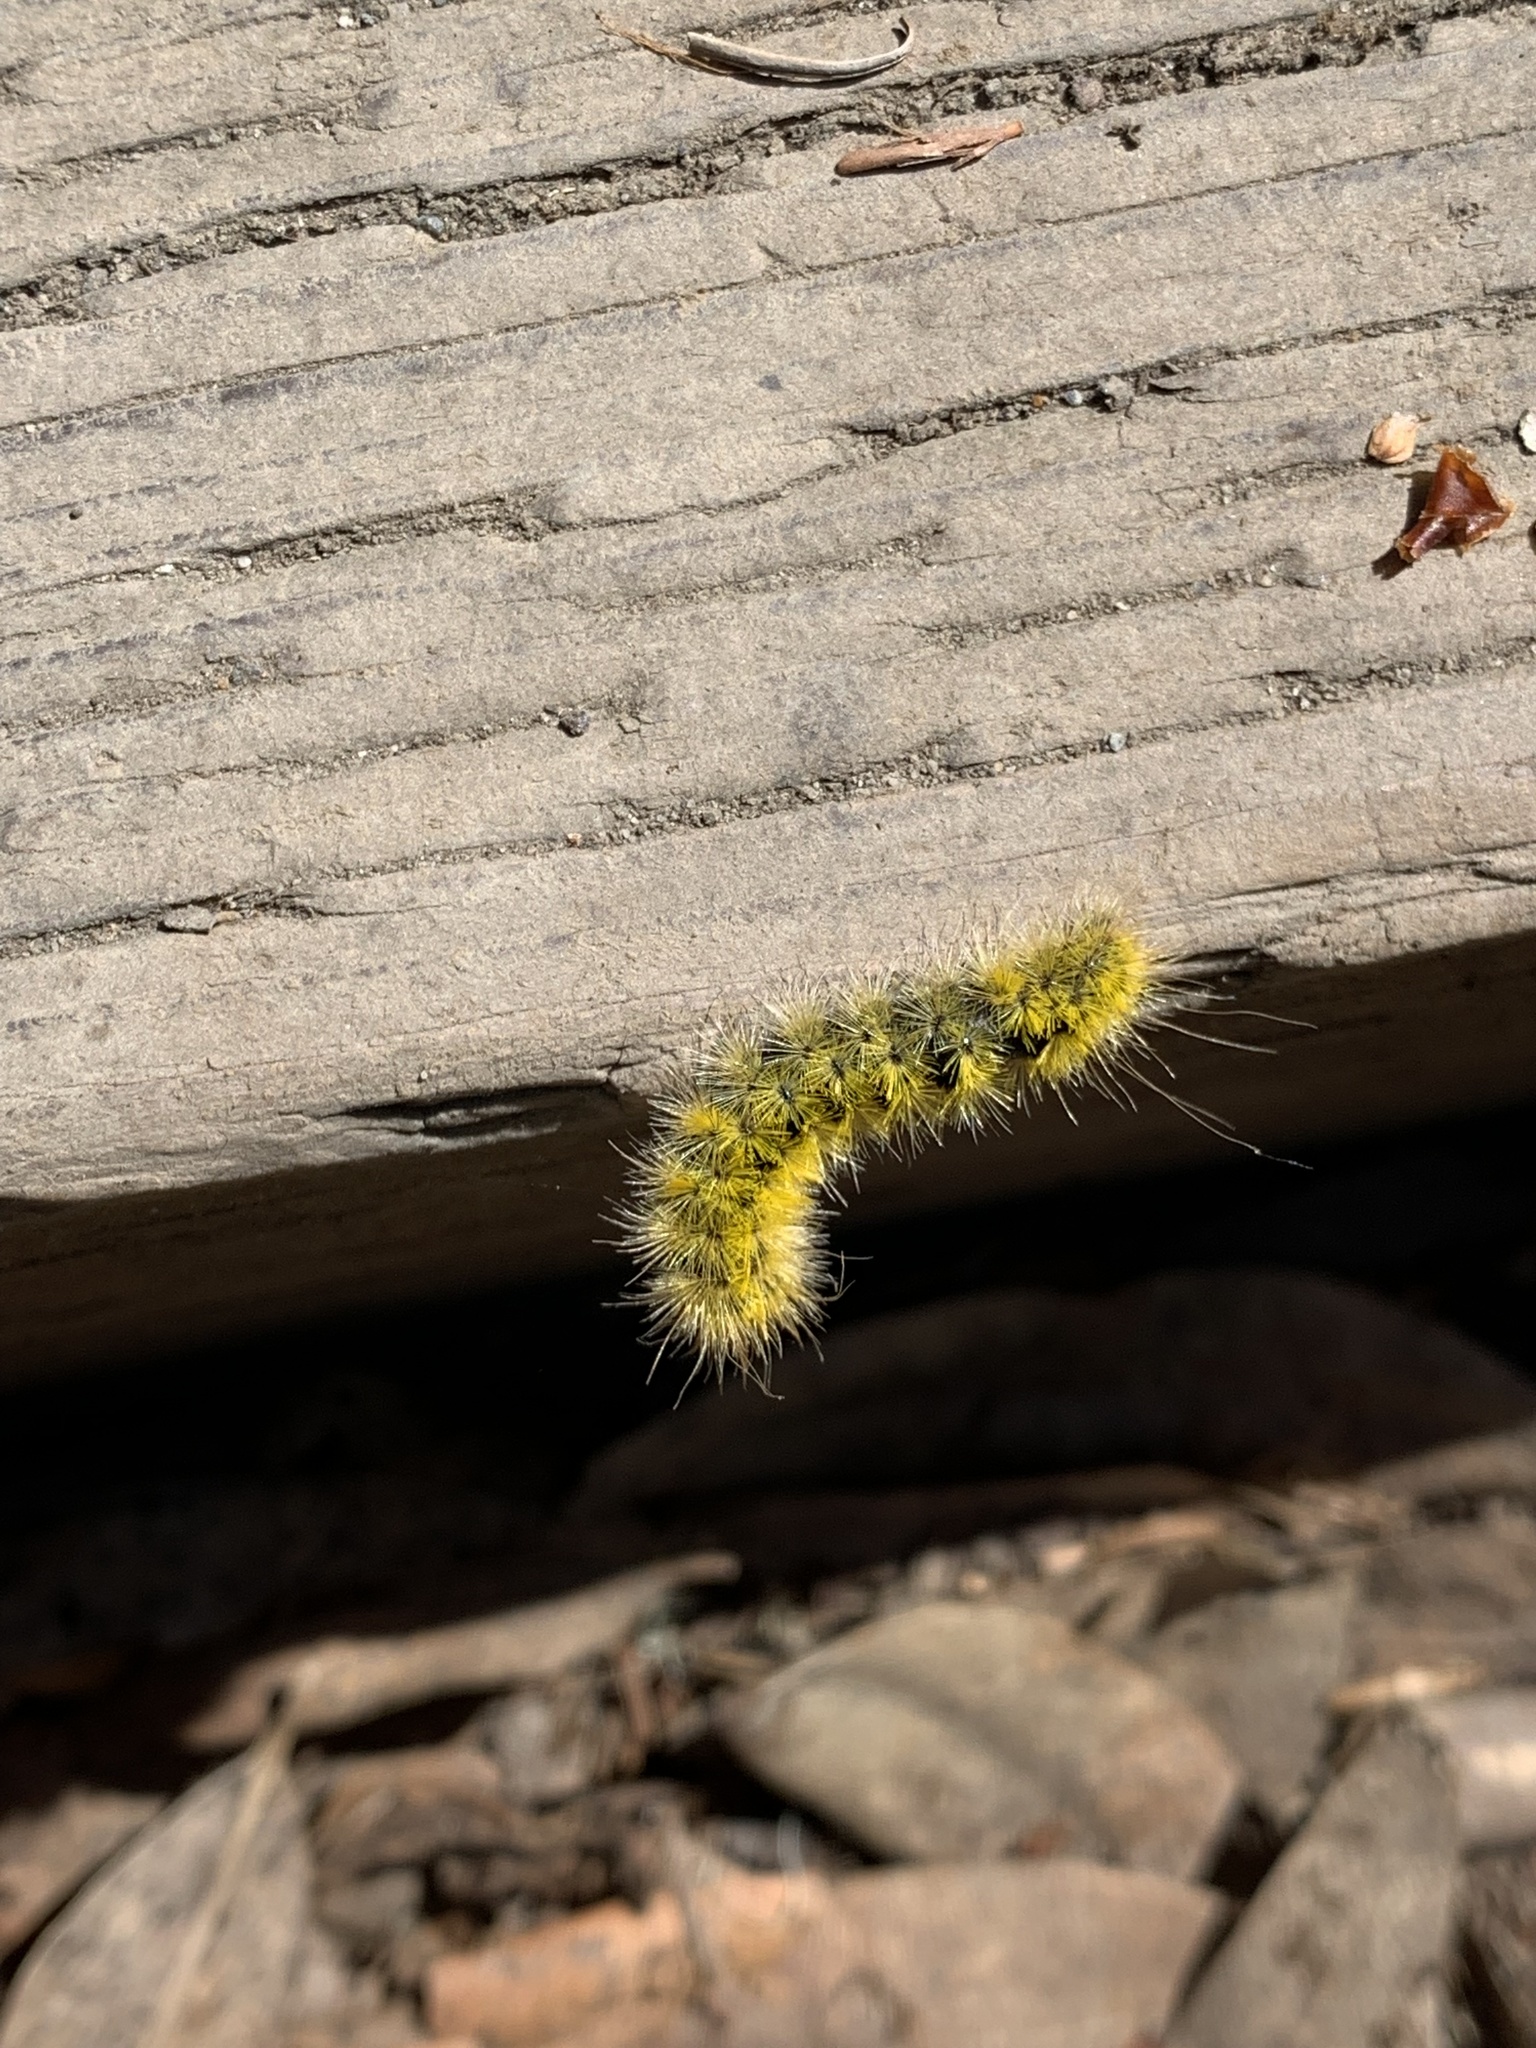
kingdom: Animalia
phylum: Arthropoda
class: Insecta
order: Lepidoptera
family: Erebidae
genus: Lophocampa
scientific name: Lophocampa argentata
